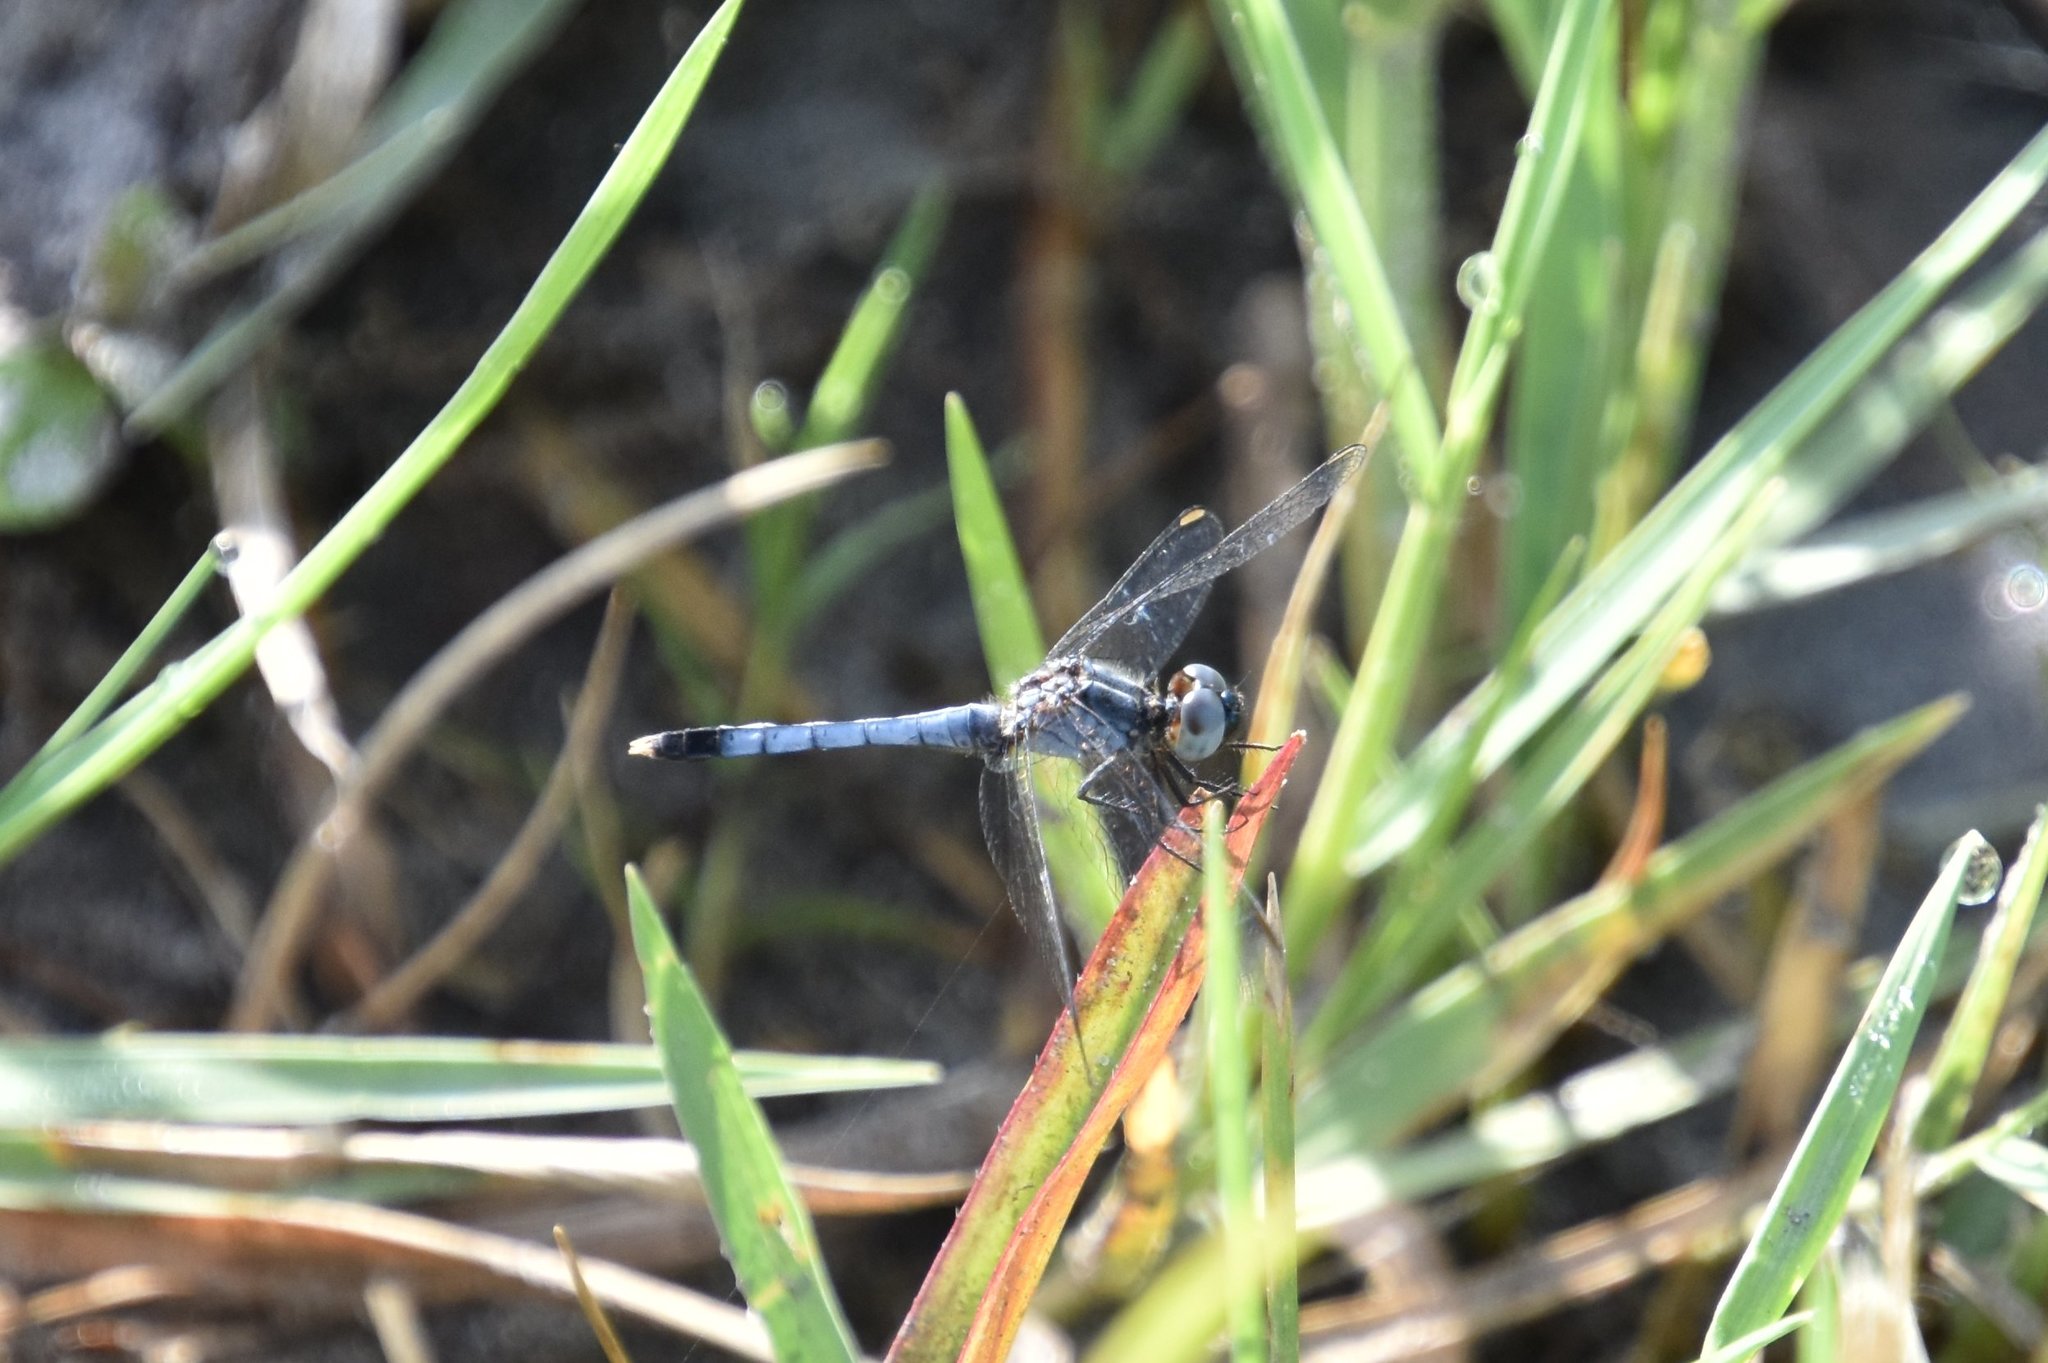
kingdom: Animalia
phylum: Arthropoda
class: Insecta
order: Odonata
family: Libellulidae
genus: Erythrodiplax
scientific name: Erythrodiplax minuscula
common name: Little blue dragonlet
